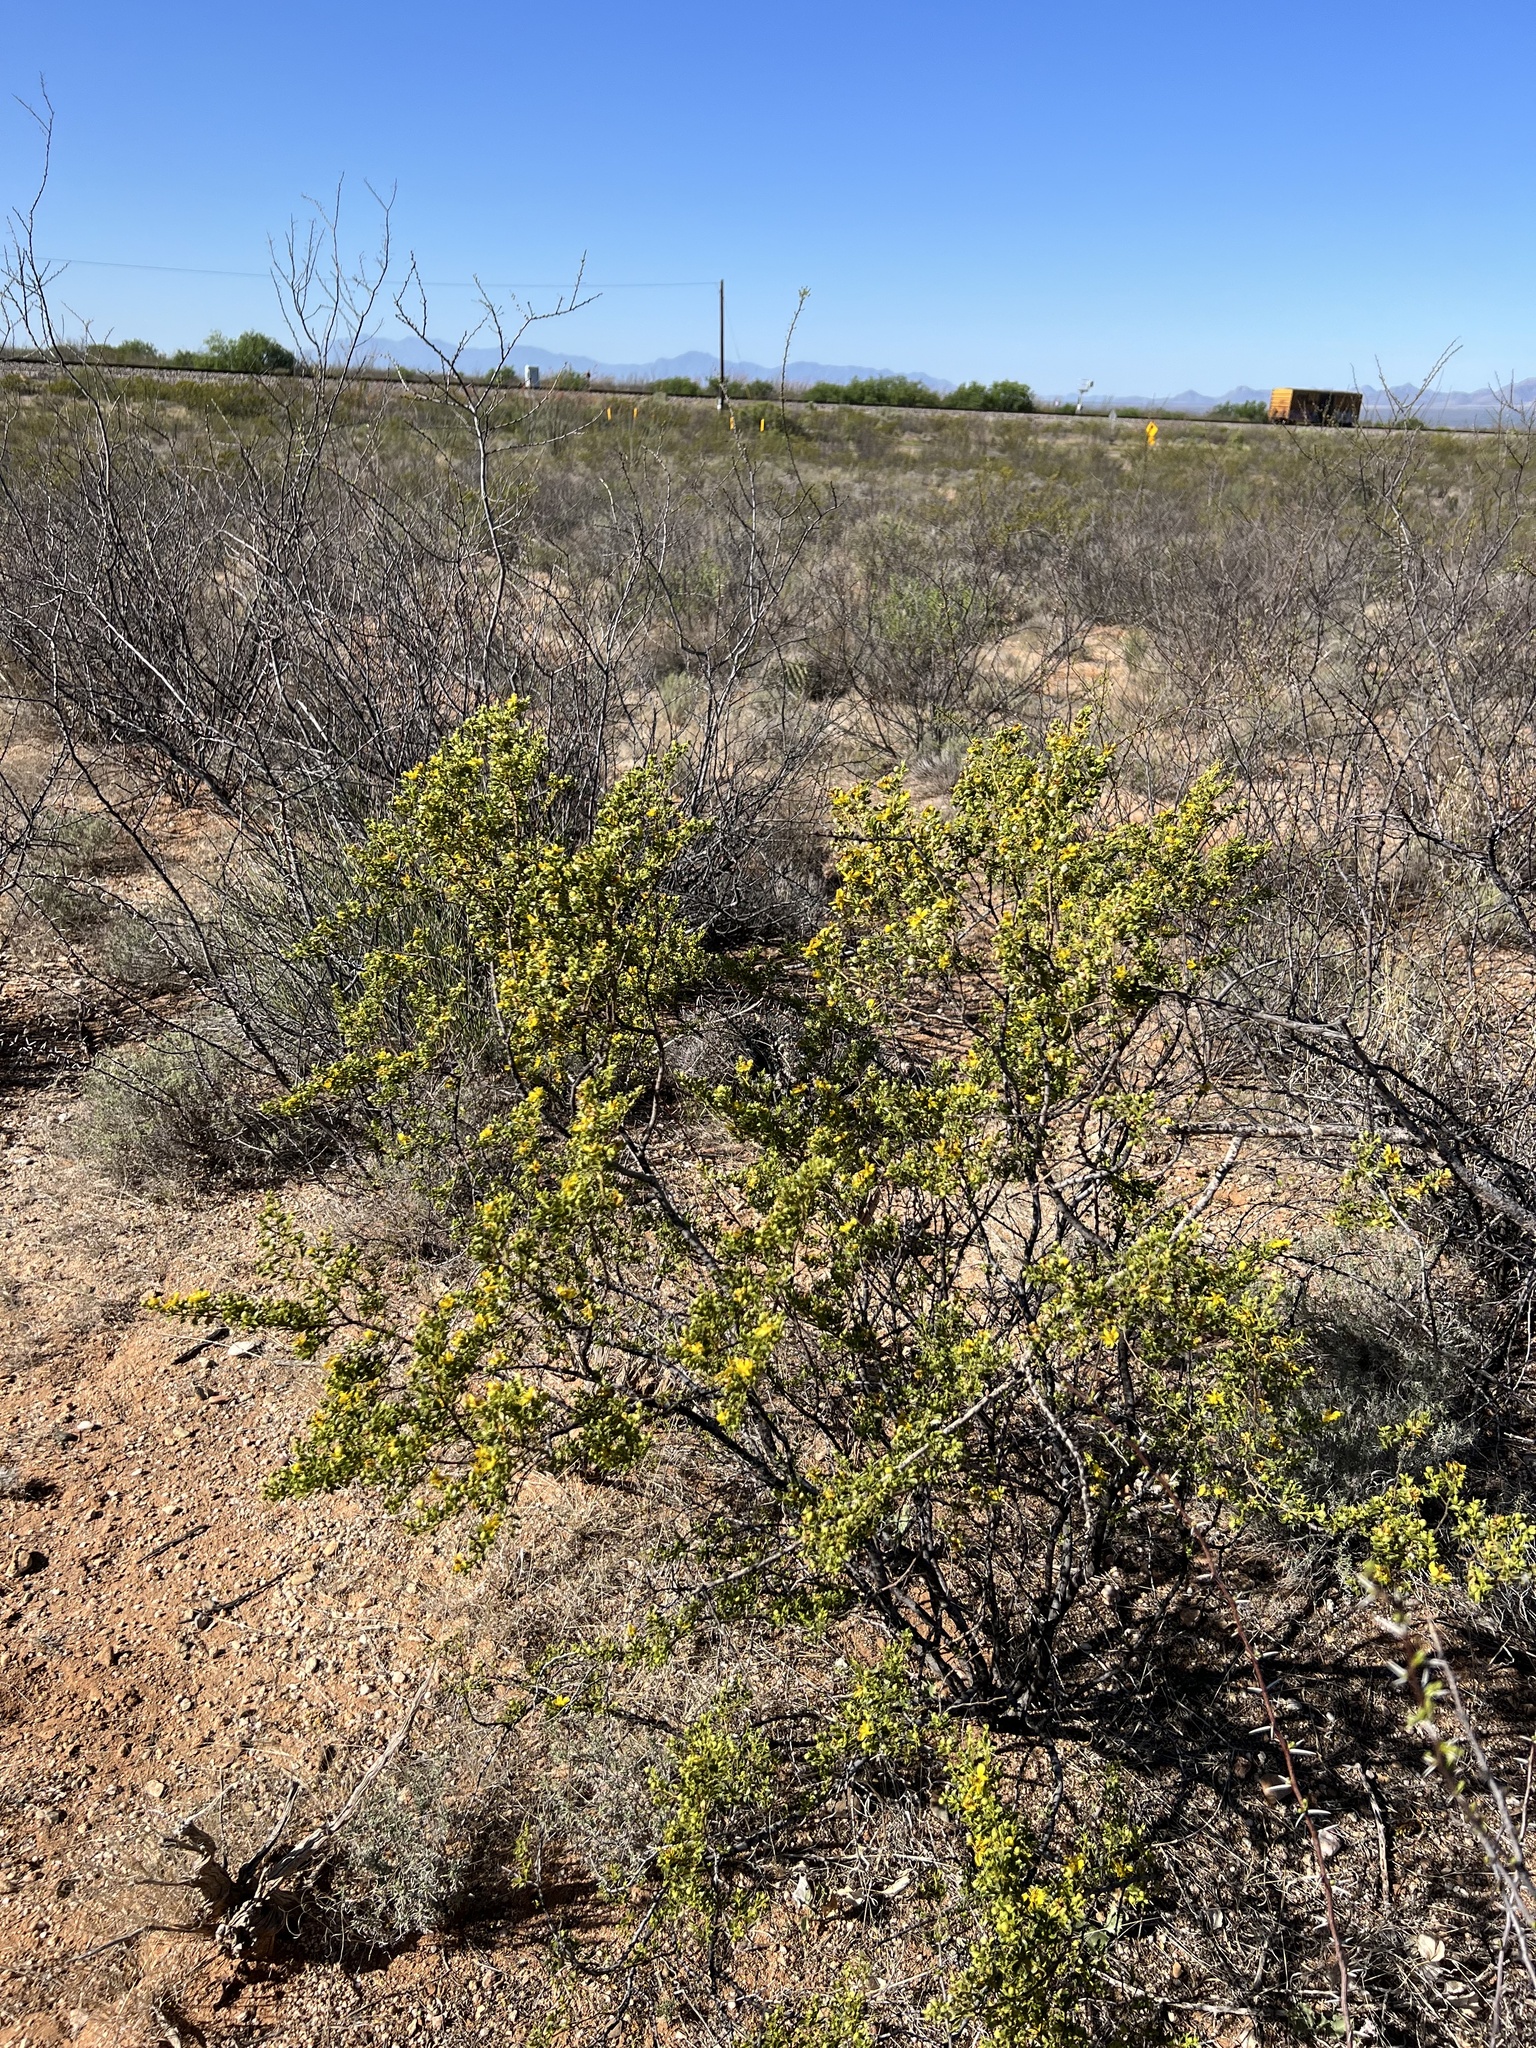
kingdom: Plantae
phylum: Tracheophyta
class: Magnoliopsida
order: Zygophyllales
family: Zygophyllaceae
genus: Larrea
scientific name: Larrea tridentata
